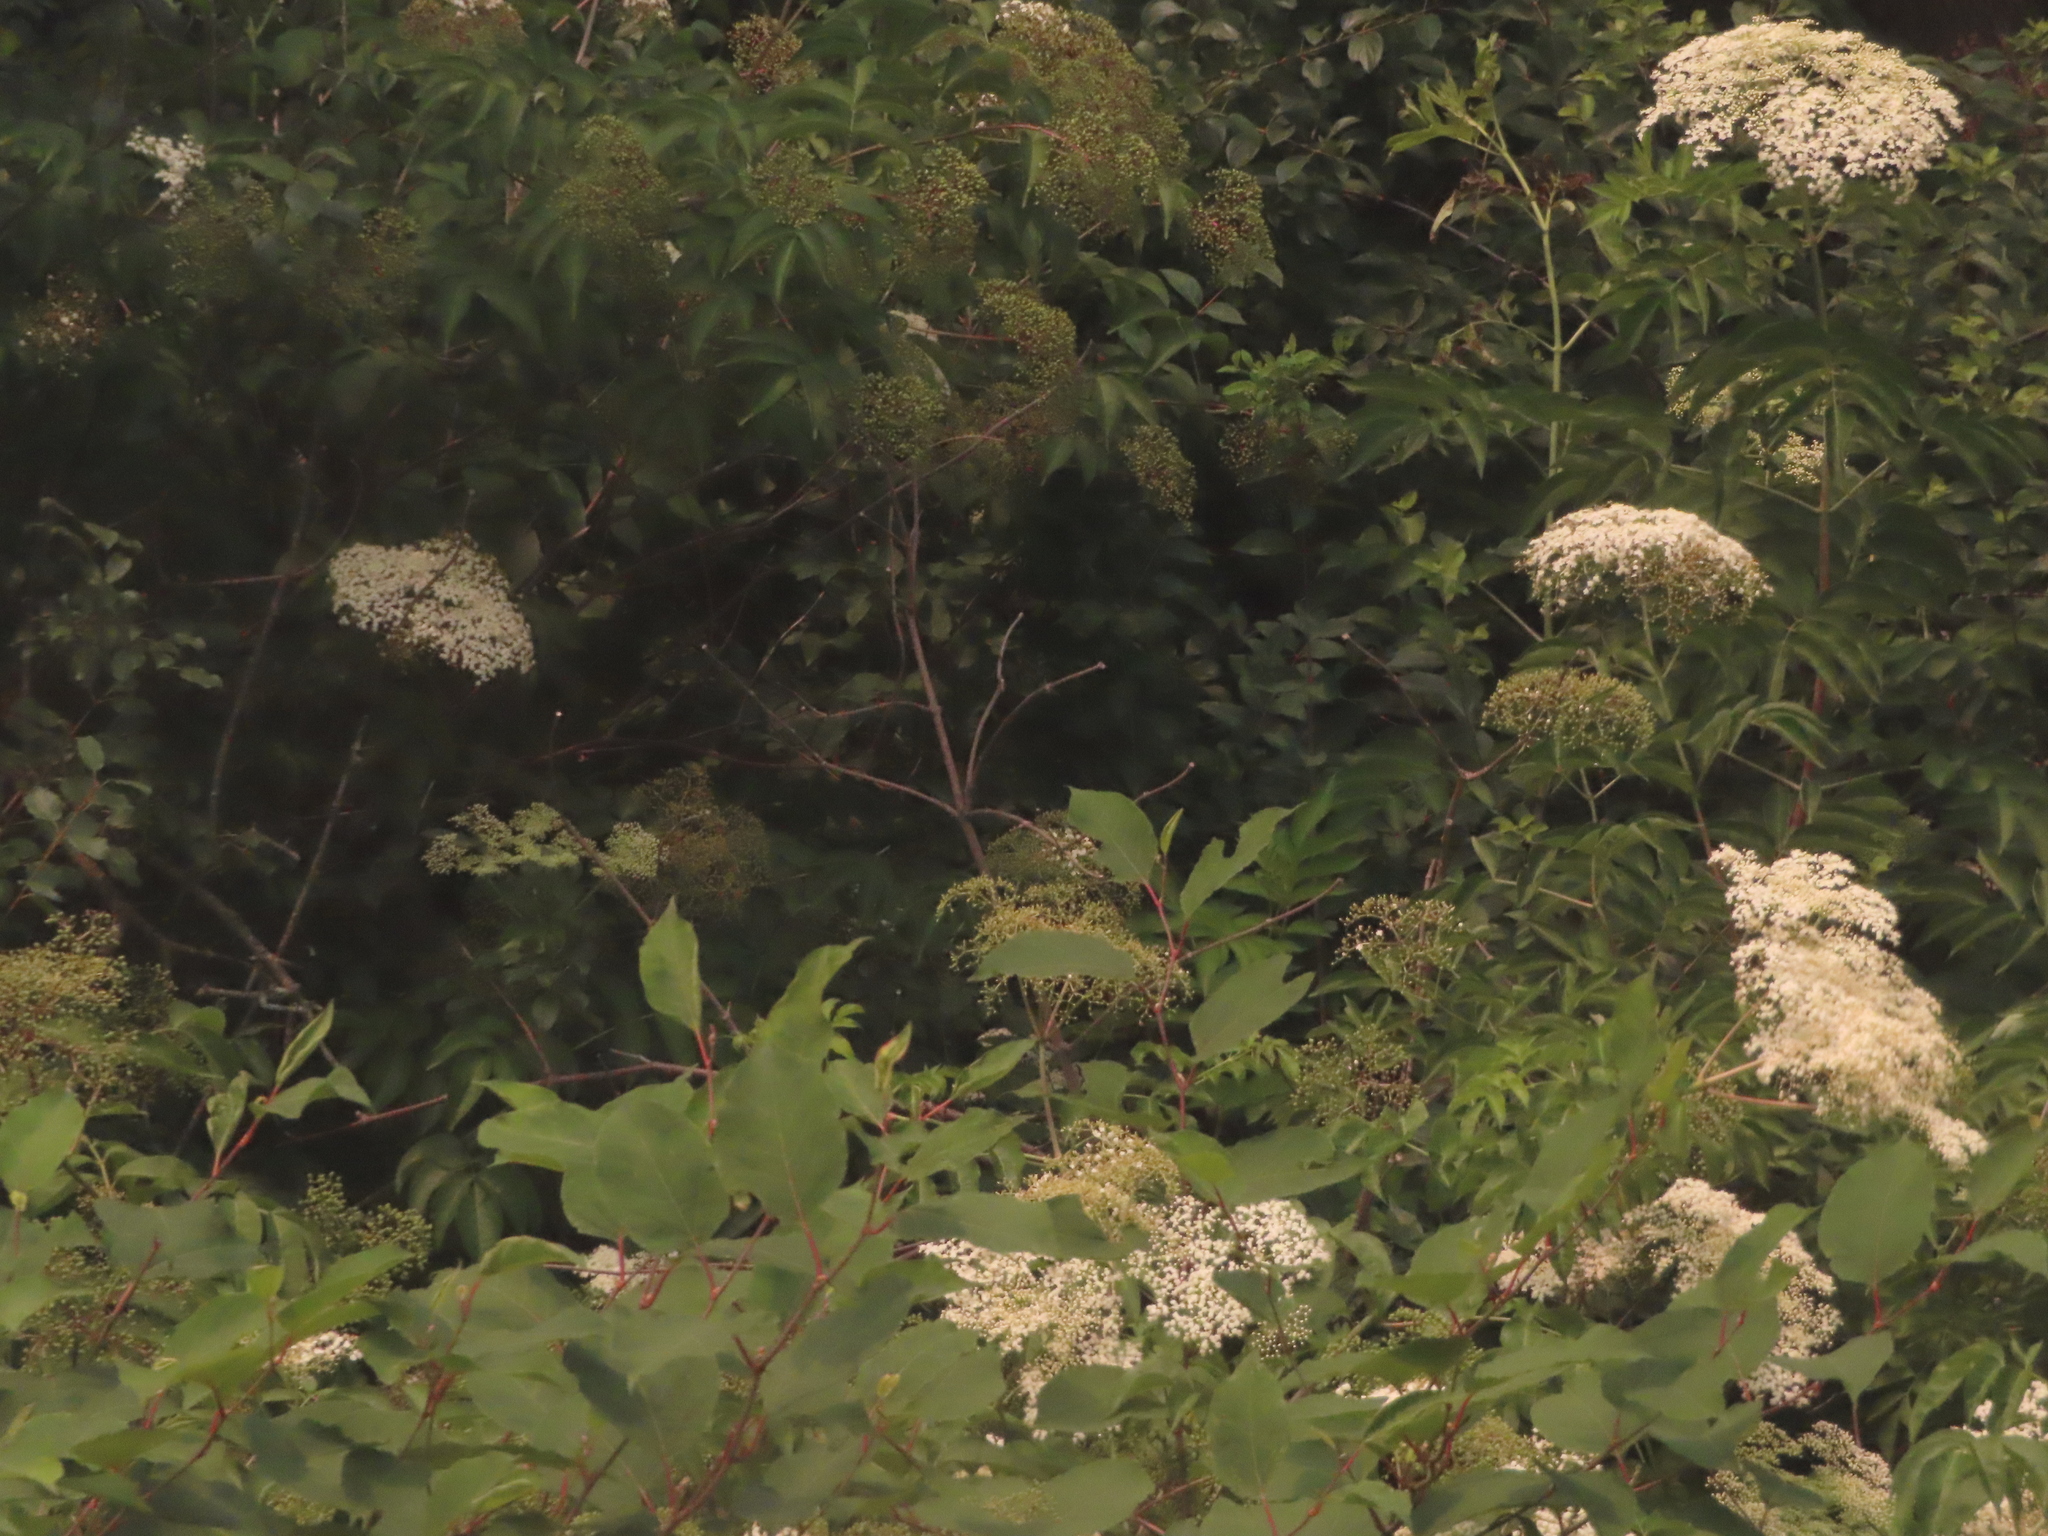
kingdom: Plantae
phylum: Tracheophyta
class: Magnoliopsida
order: Dipsacales
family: Viburnaceae
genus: Sambucus
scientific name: Sambucus canadensis
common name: American elder
